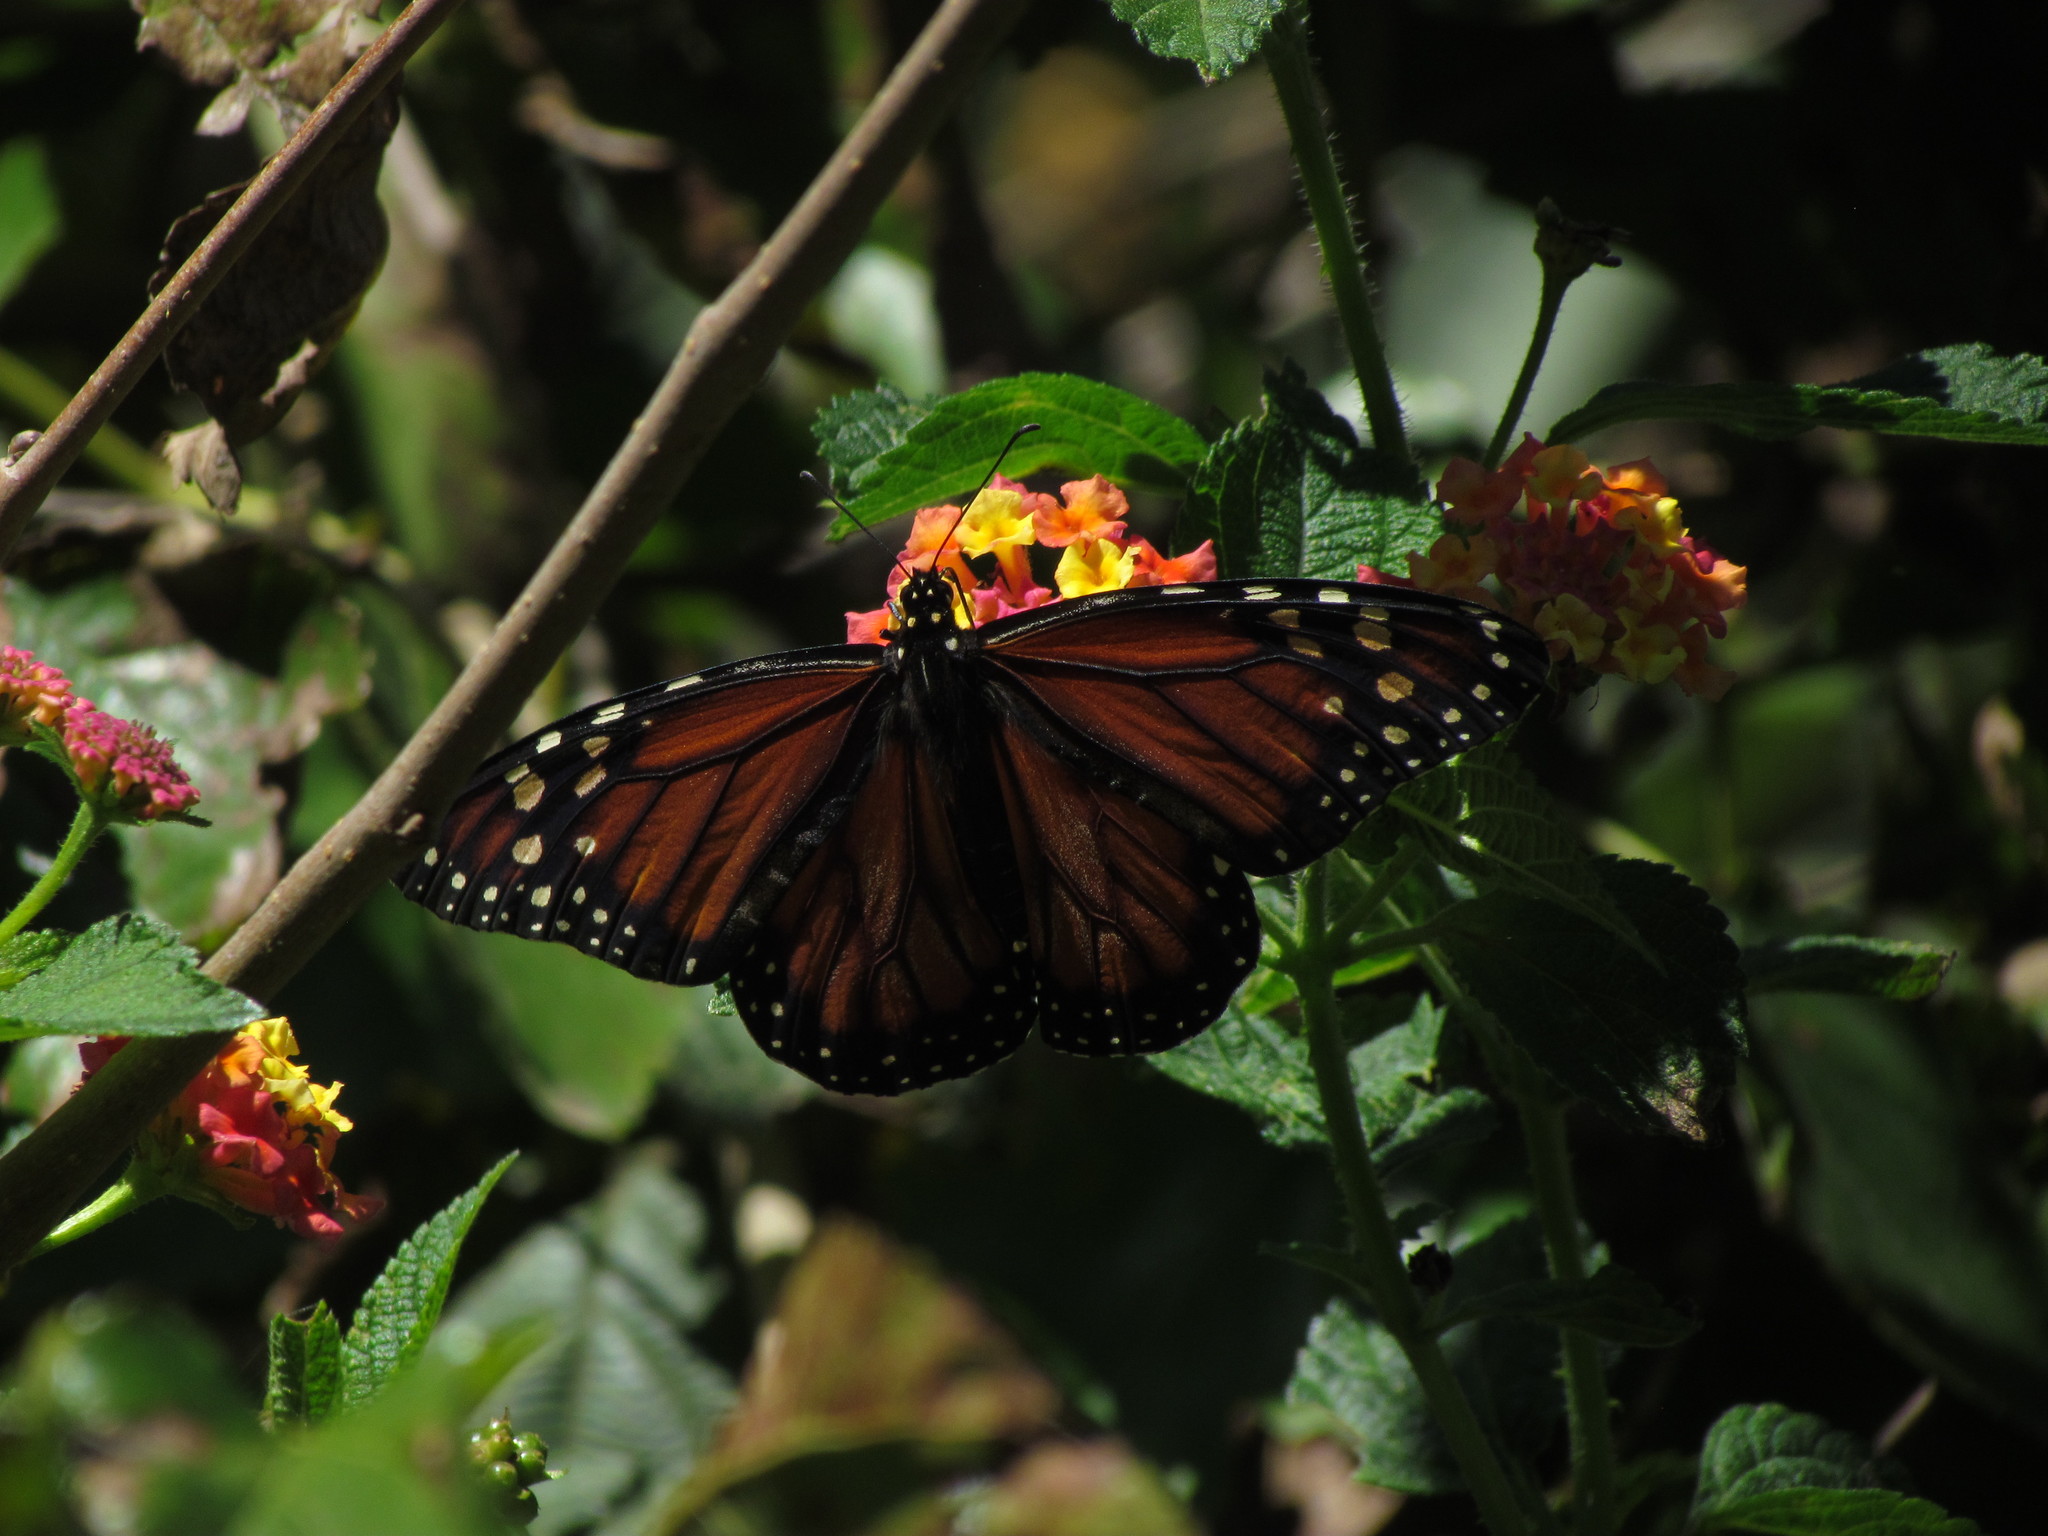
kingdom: Animalia
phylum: Arthropoda
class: Insecta
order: Lepidoptera
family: Nymphalidae
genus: Danaus
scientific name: Danaus erippus
